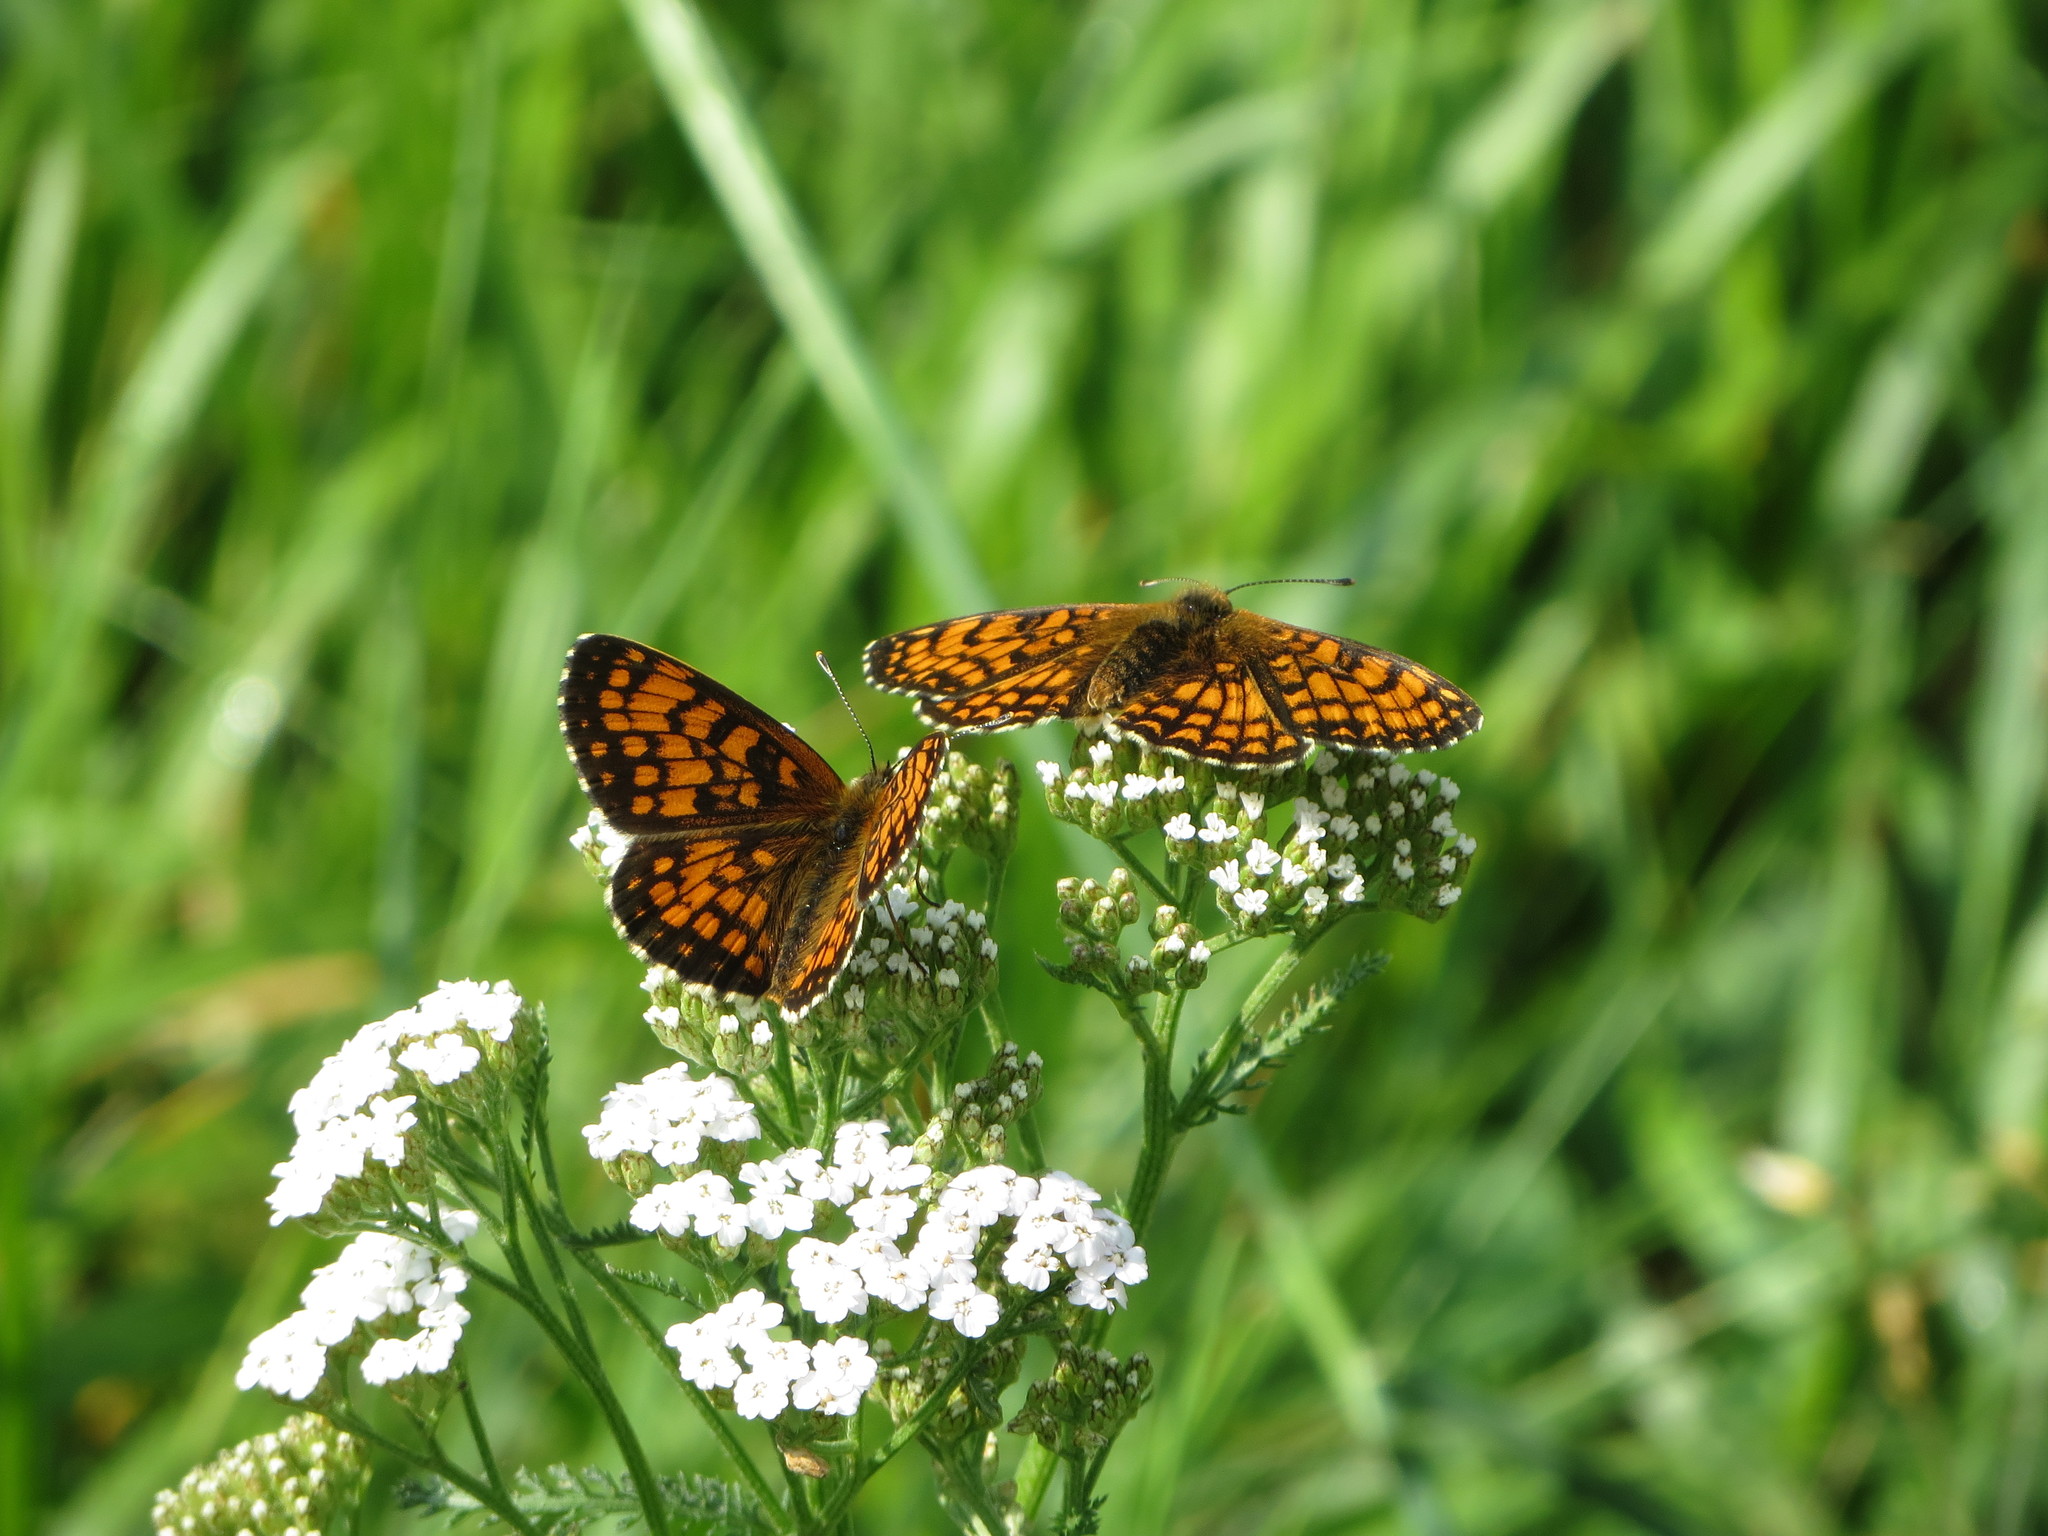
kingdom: Animalia
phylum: Arthropoda
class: Insecta
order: Lepidoptera
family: Nymphalidae
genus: Mellicta
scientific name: Mellicta athalia
